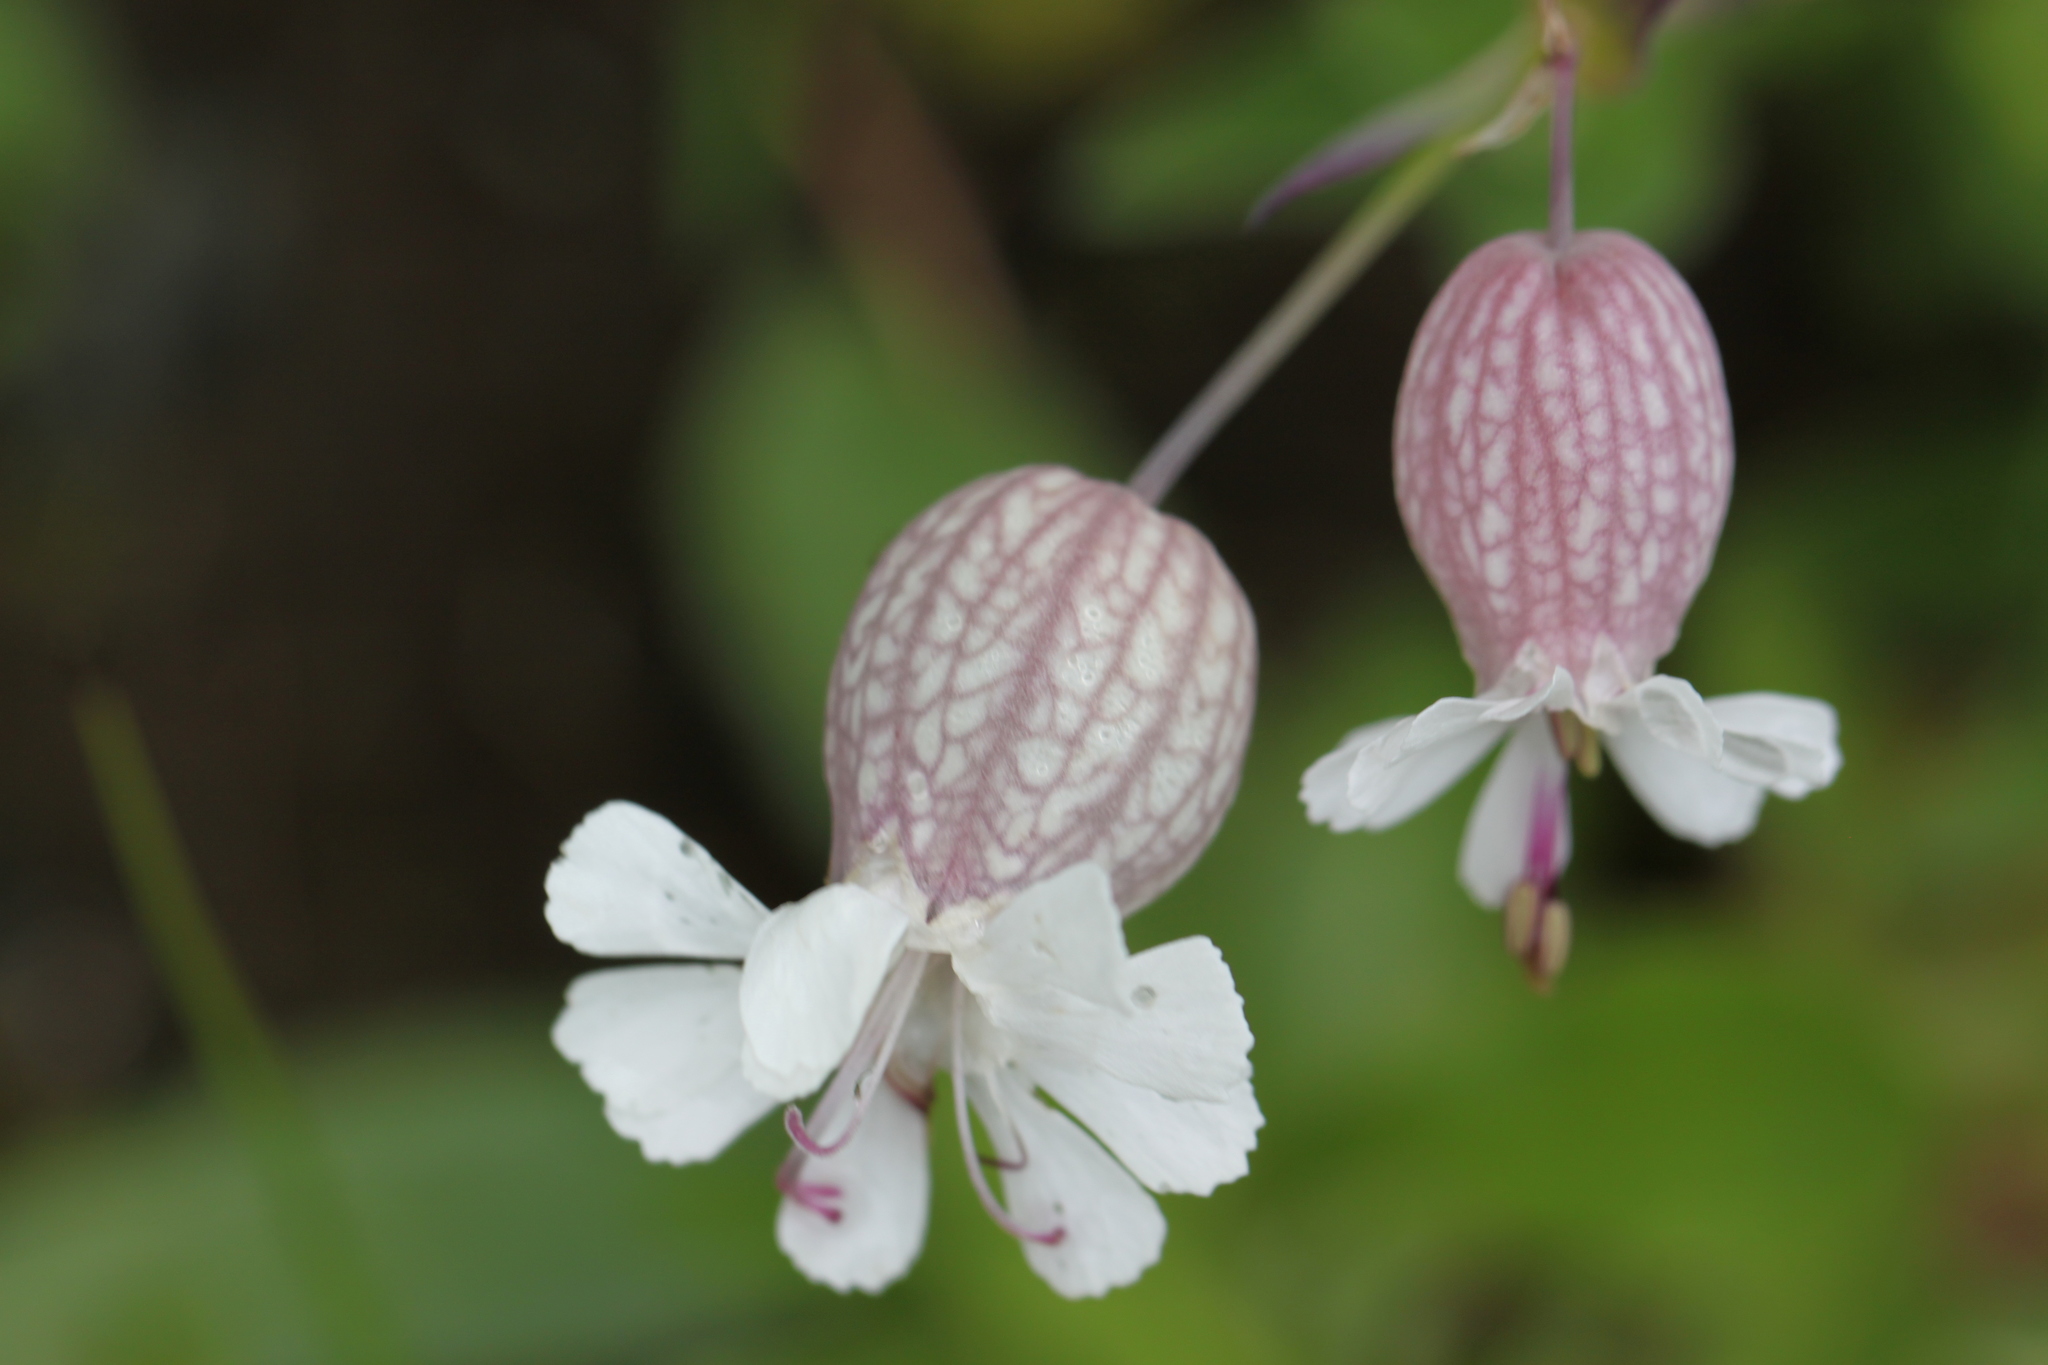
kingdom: Plantae
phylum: Tracheophyta
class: Magnoliopsida
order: Caryophyllales
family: Caryophyllaceae
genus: Silene
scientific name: Silene vulgaris
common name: Bladder campion
